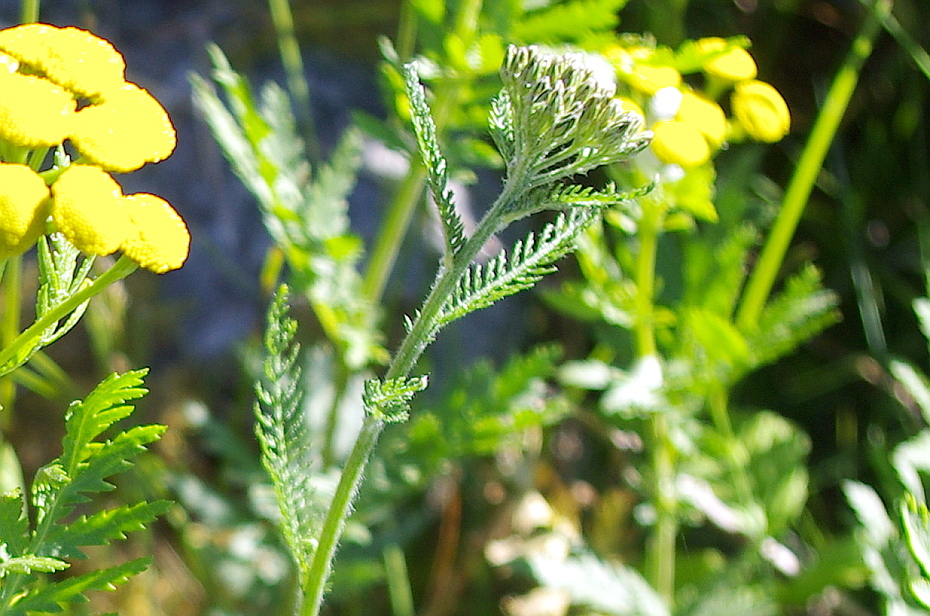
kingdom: Plantae
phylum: Tracheophyta
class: Magnoliopsida
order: Asterales
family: Asteraceae
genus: Achillea
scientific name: Achillea millefolium
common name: Yarrow
